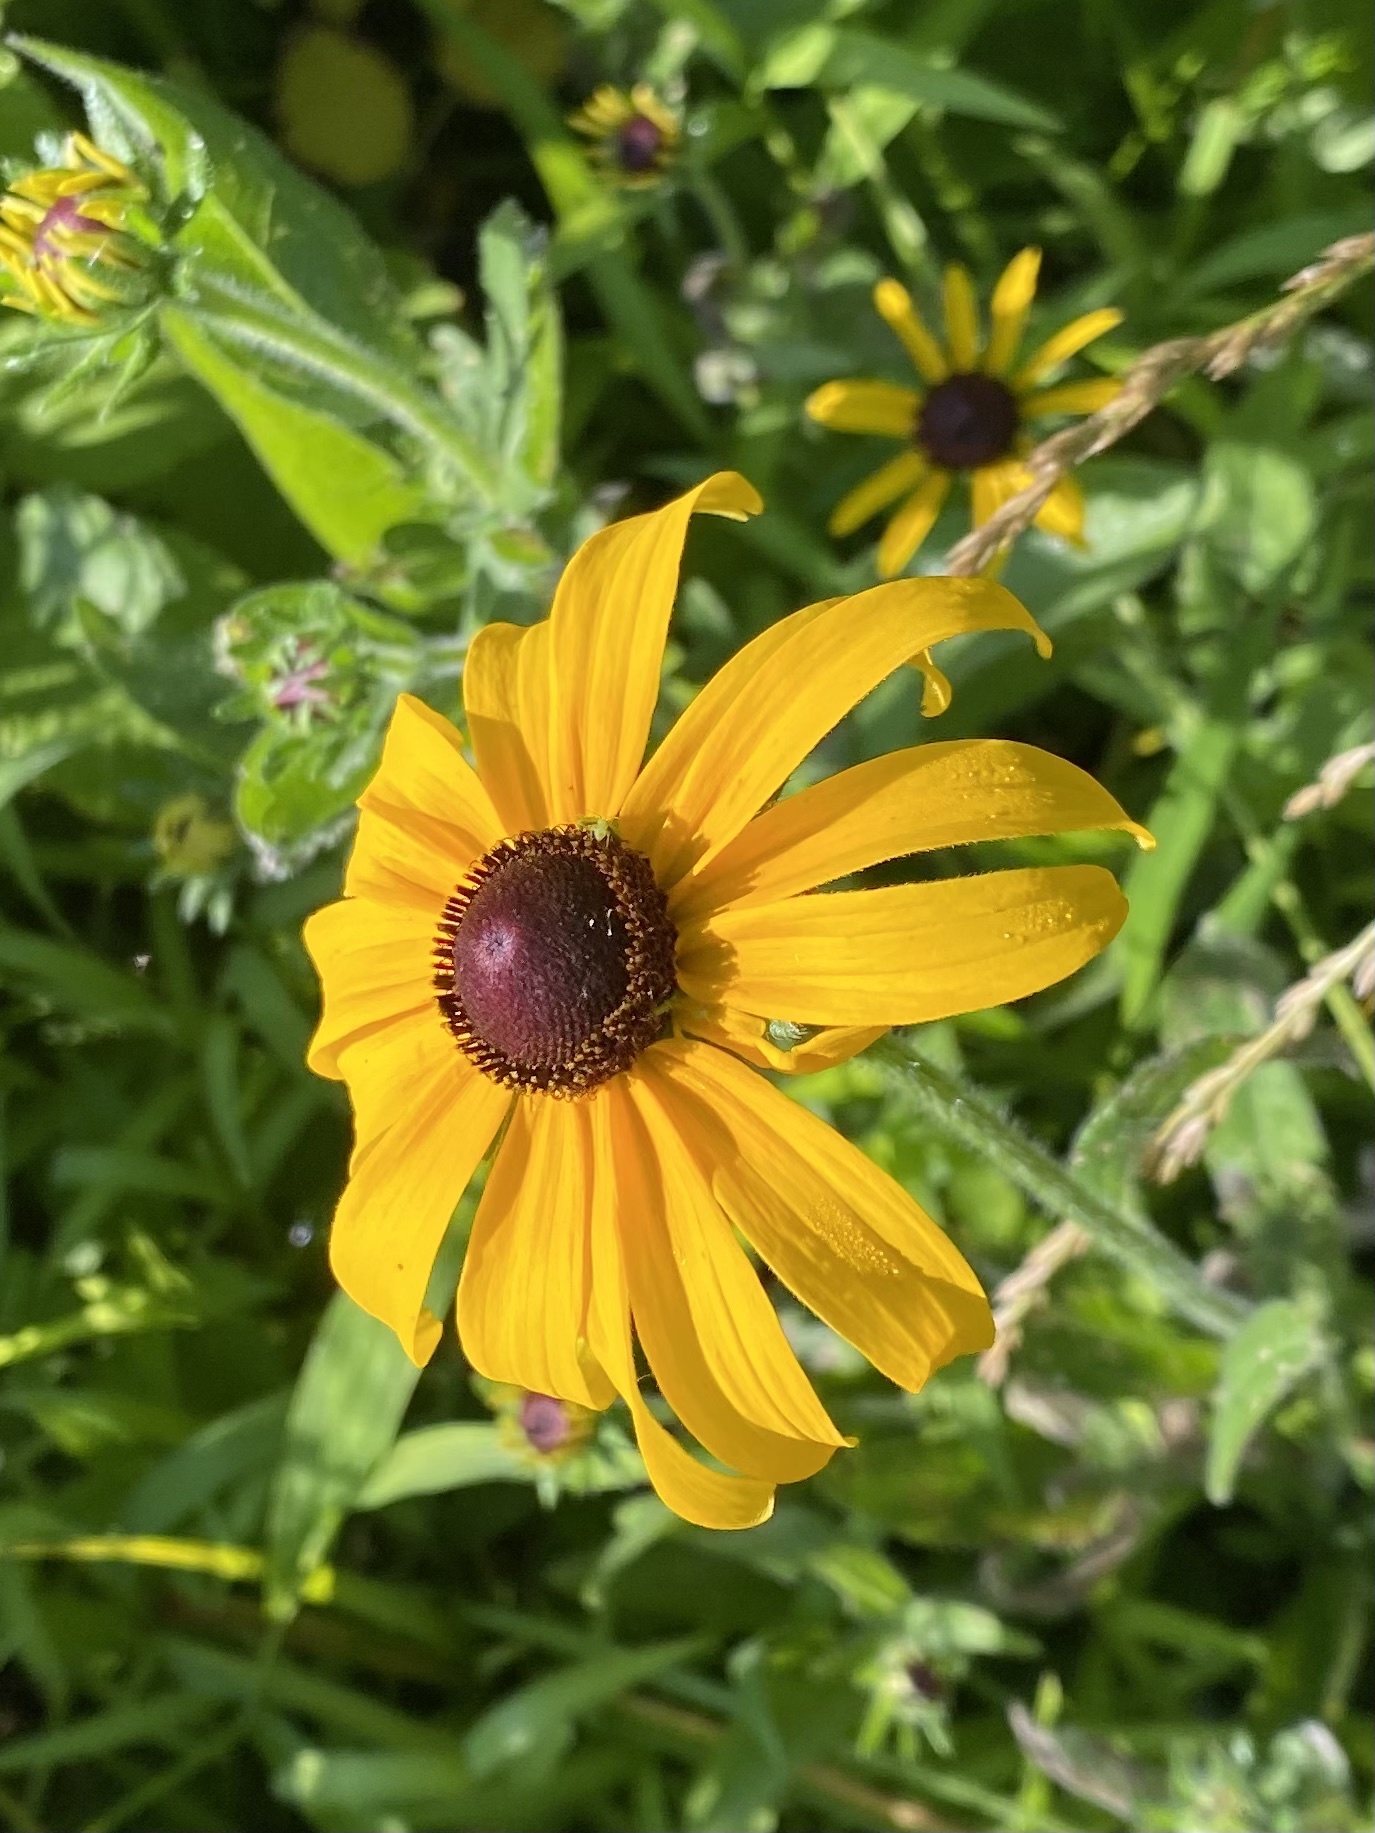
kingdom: Plantae
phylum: Tracheophyta
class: Magnoliopsida
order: Asterales
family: Asteraceae
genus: Rudbeckia
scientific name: Rudbeckia hirta
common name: Black-eyed-susan
